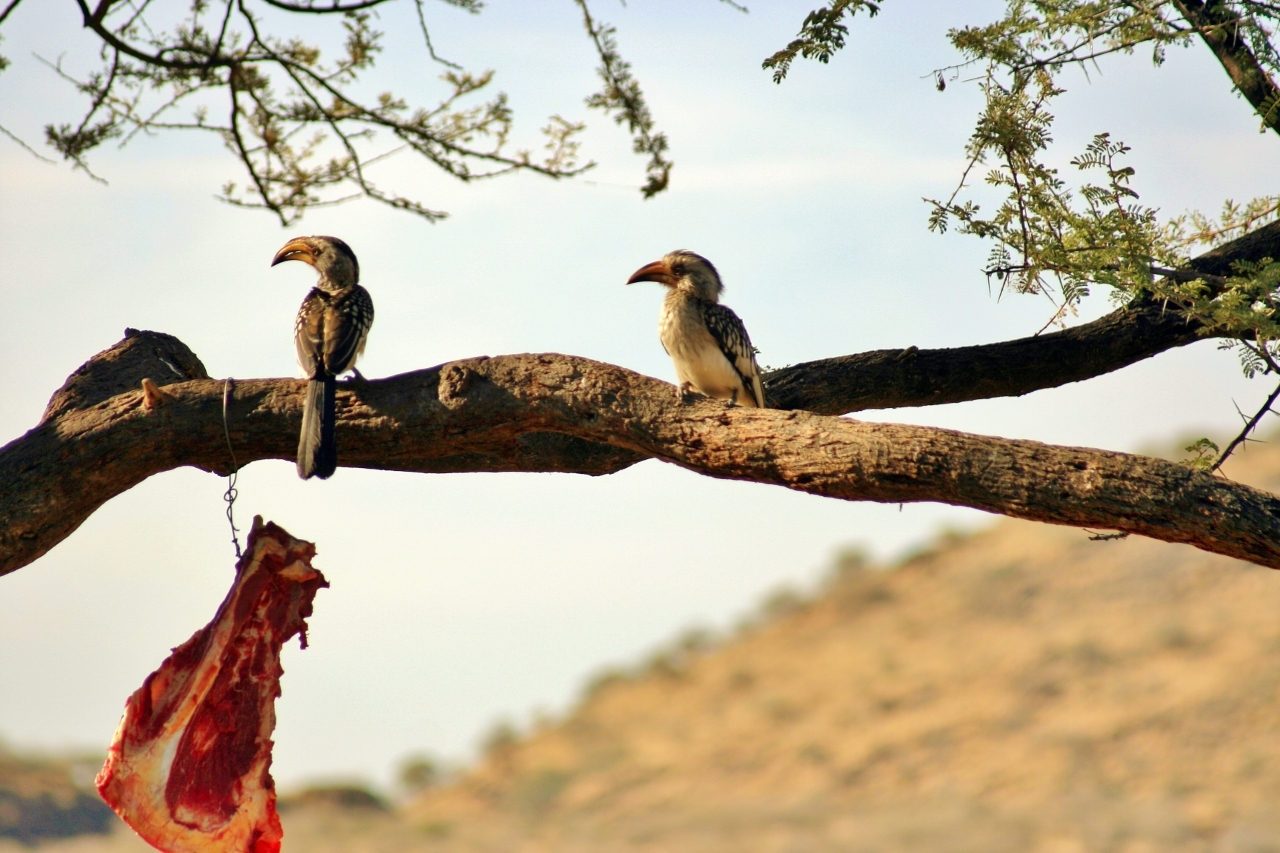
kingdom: Animalia
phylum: Chordata
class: Aves
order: Bucerotiformes
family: Bucerotidae
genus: Tockus
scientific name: Tockus leucomelas
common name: Southern yellow-billed hornbill
